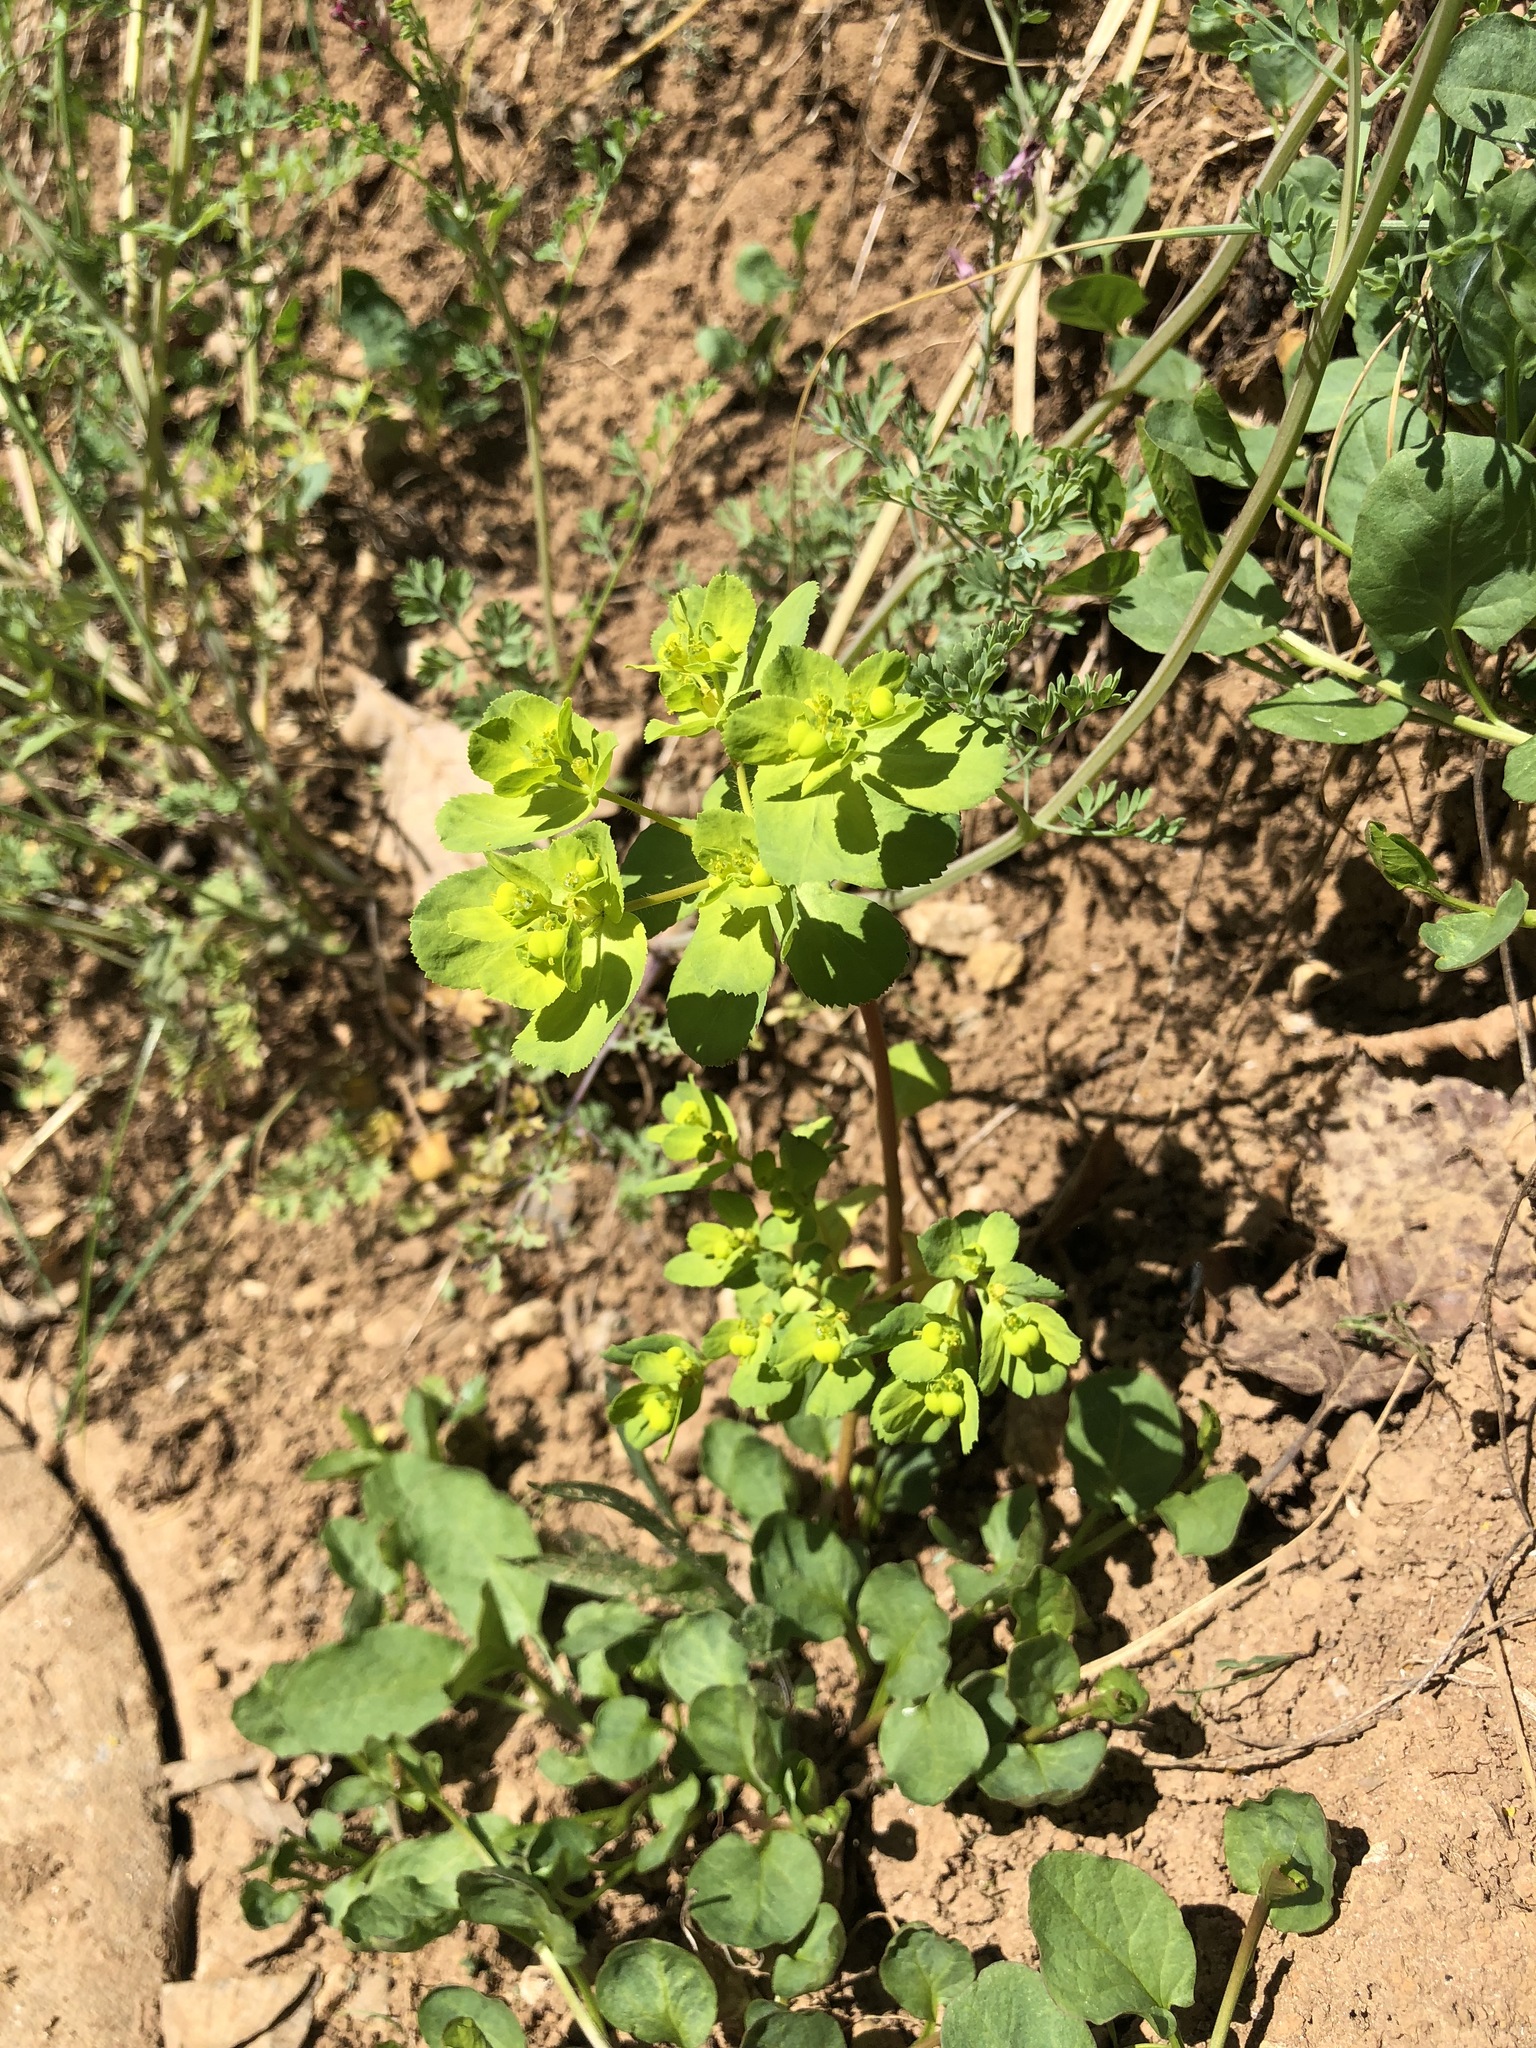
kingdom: Plantae
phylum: Tracheophyta
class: Magnoliopsida
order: Malpighiales
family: Euphorbiaceae
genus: Euphorbia
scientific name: Euphorbia helioscopia
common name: Sun spurge
